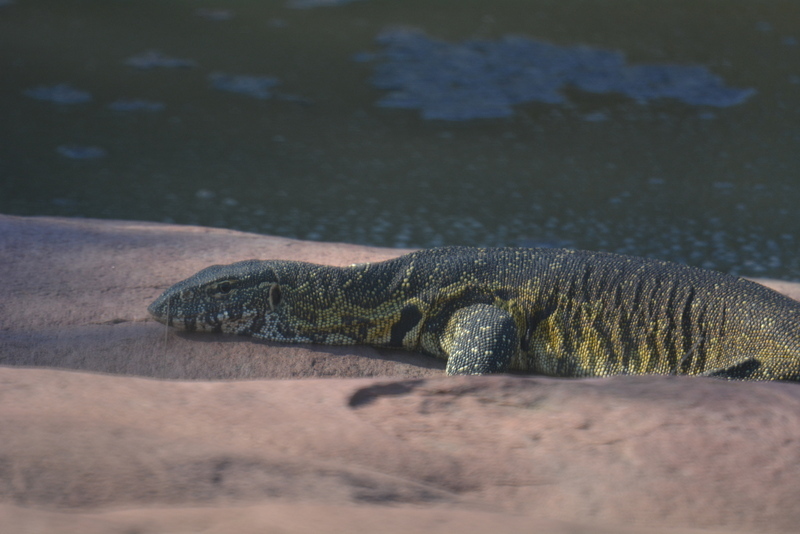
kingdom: Animalia
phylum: Chordata
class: Squamata
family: Varanidae
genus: Varanus
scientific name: Varanus niloticus
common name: Nile monitor
